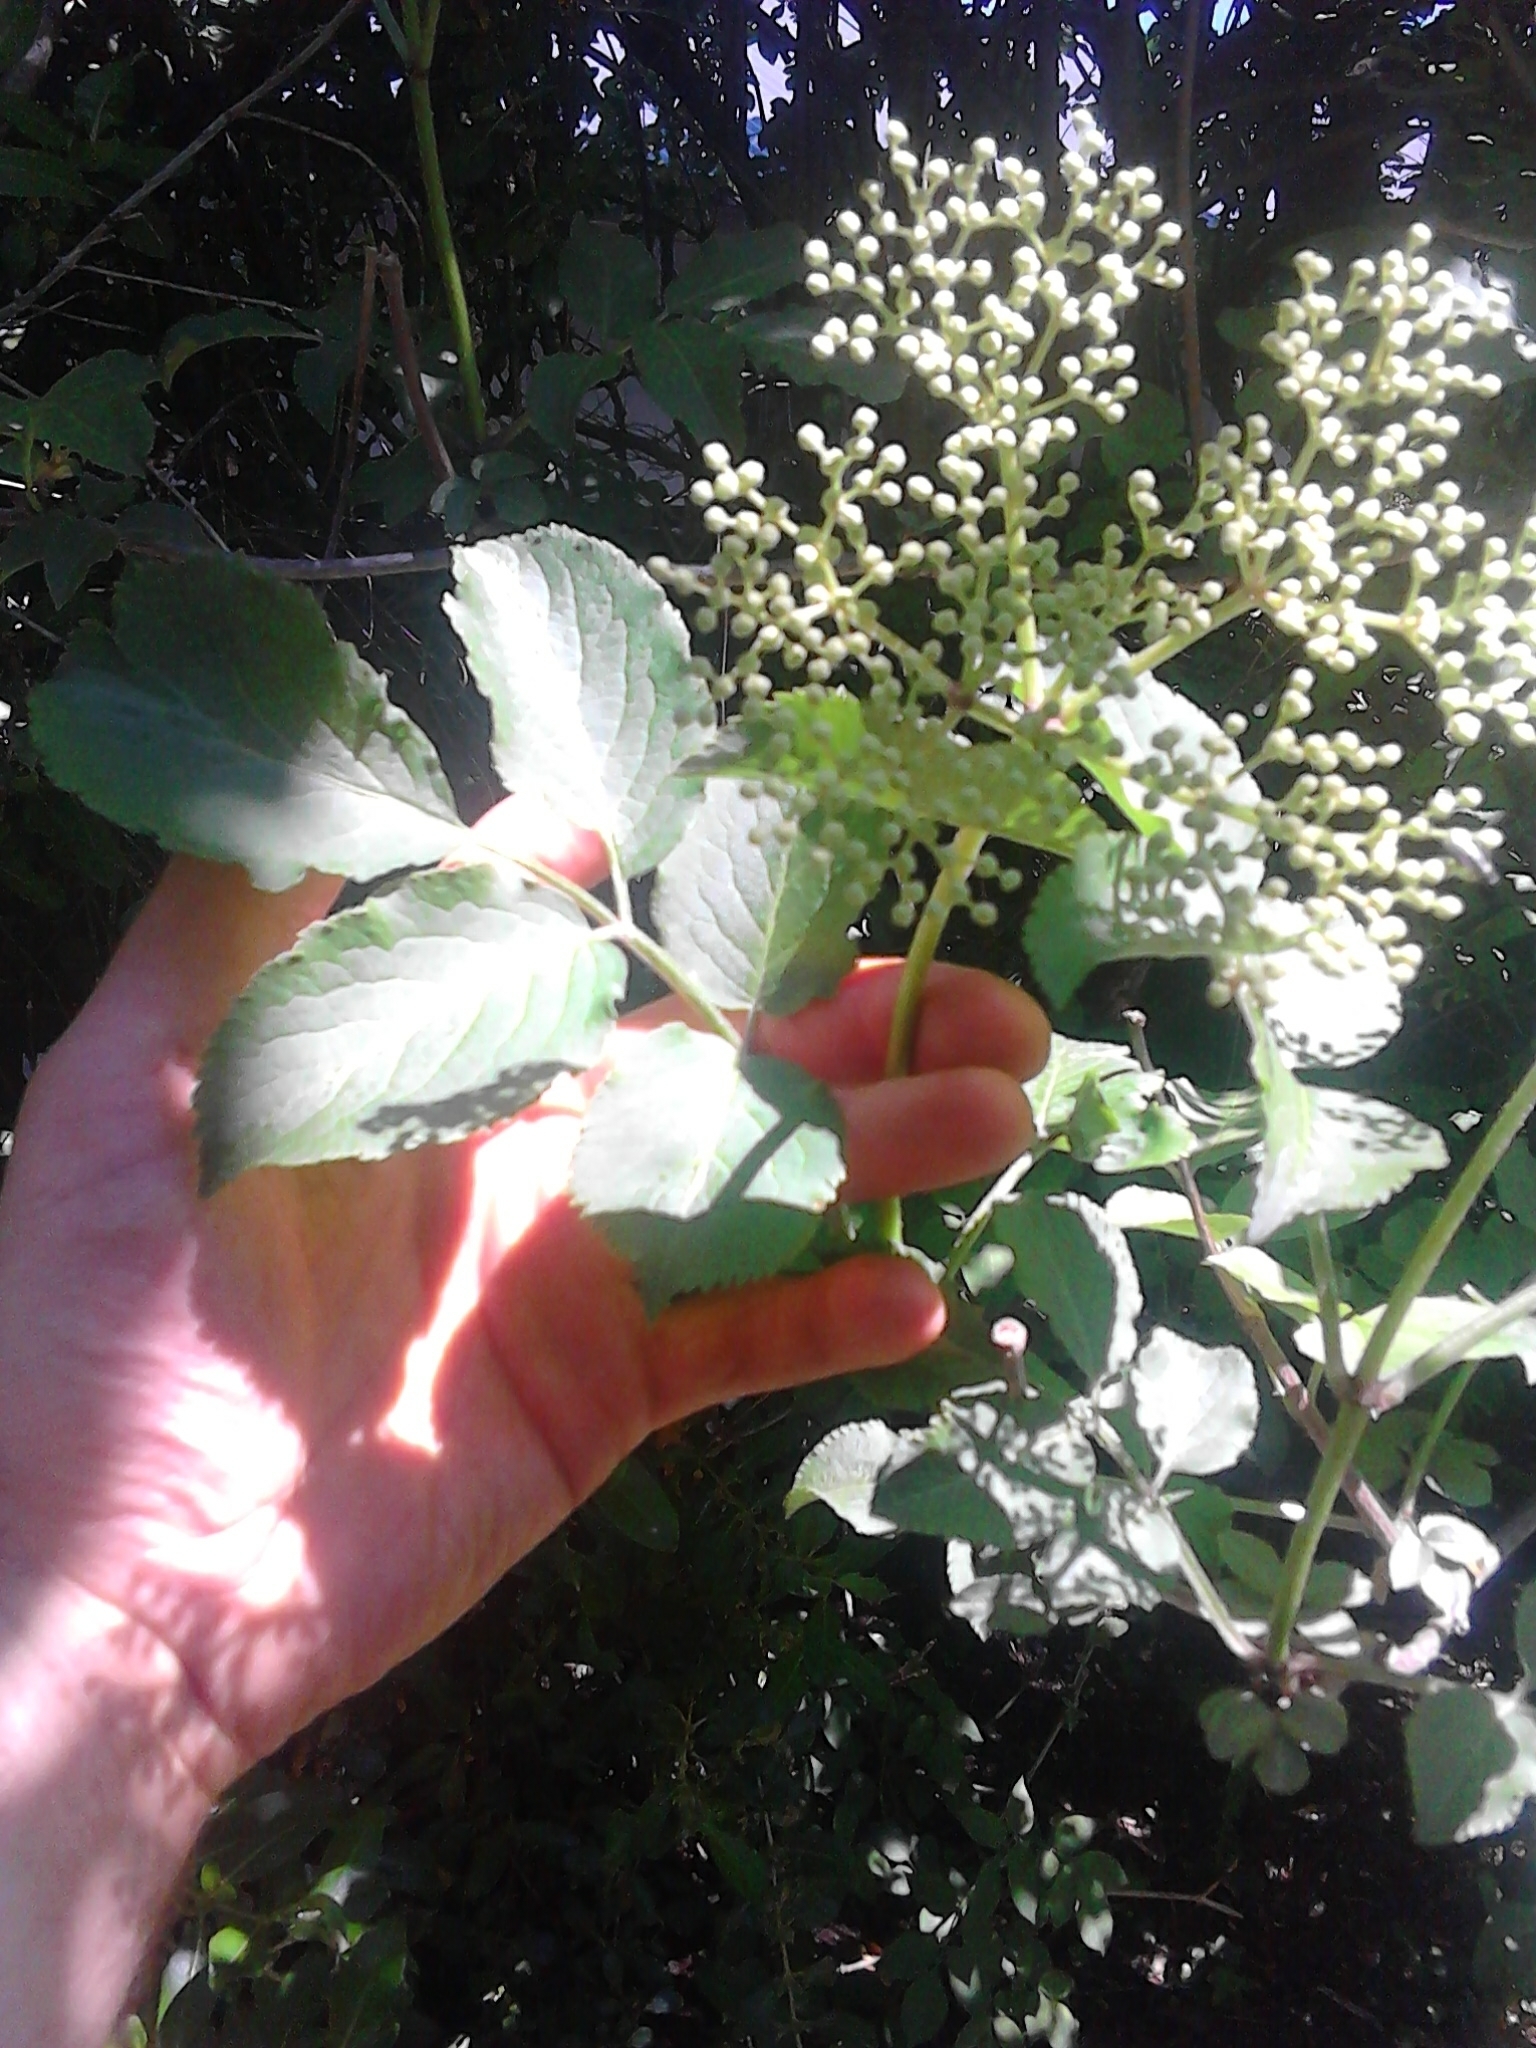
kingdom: Plantae
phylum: Tracheophyta
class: Magnoliopsida
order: Dipsacales
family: Viburnaceae
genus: Sambucus
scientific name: Sambucus nigra
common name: Elder
